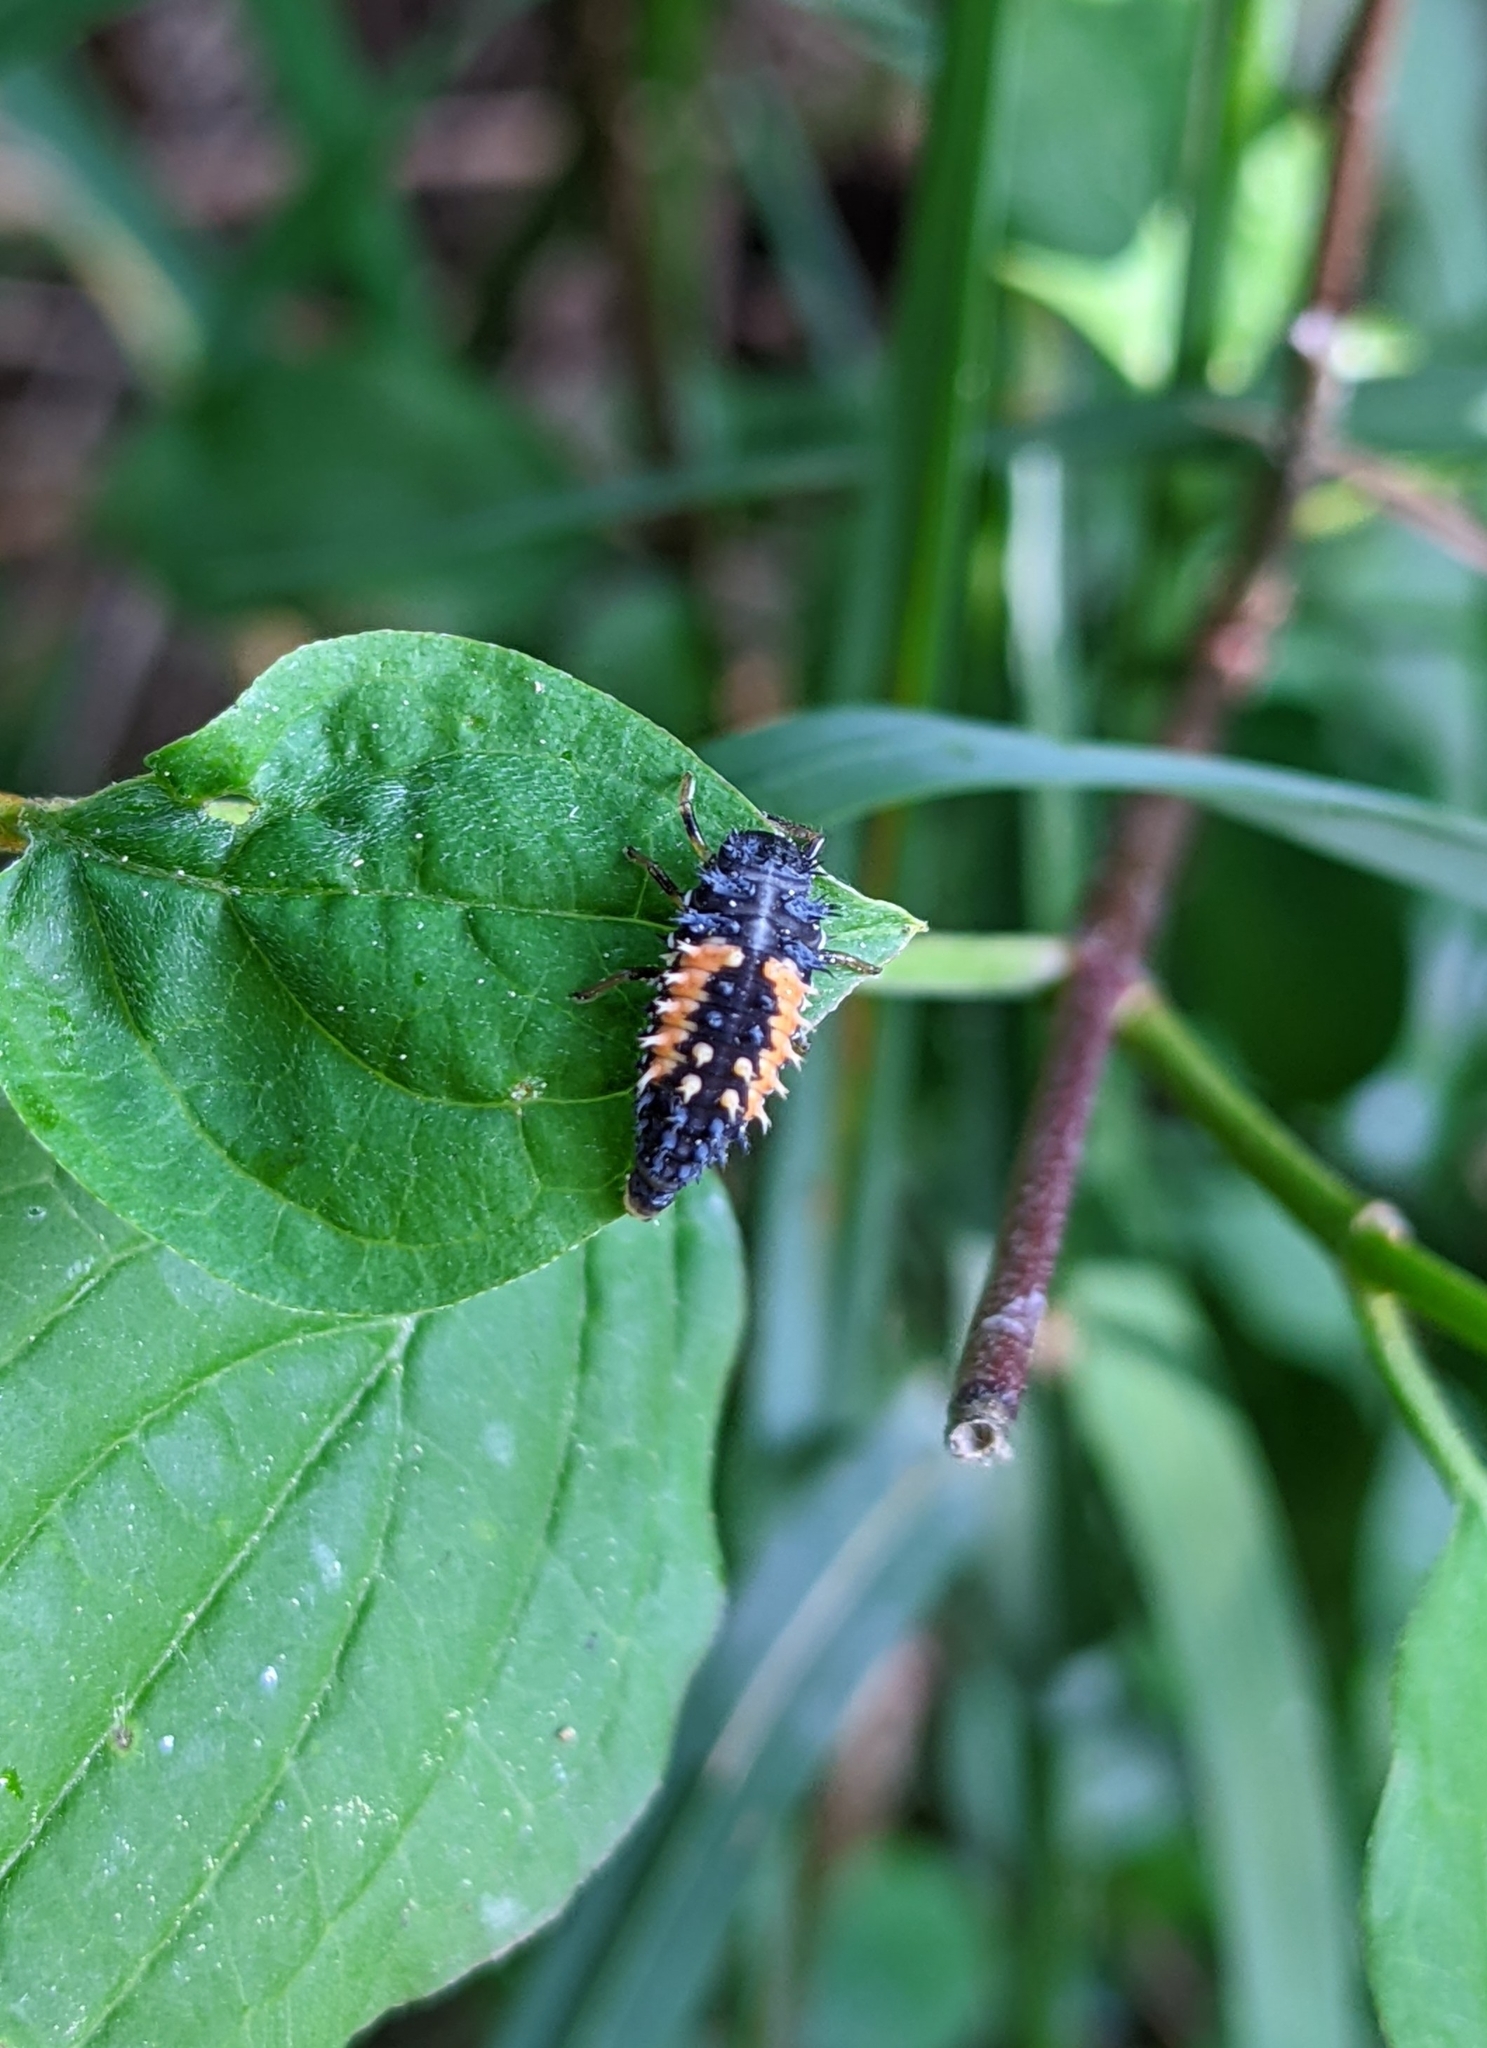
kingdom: Animalia
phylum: Arthropoda
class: Insecta
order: Coleoptera
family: Coccinellidae
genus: Harmonia
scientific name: Harmonia axyridis
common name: Harlequin ladybird
